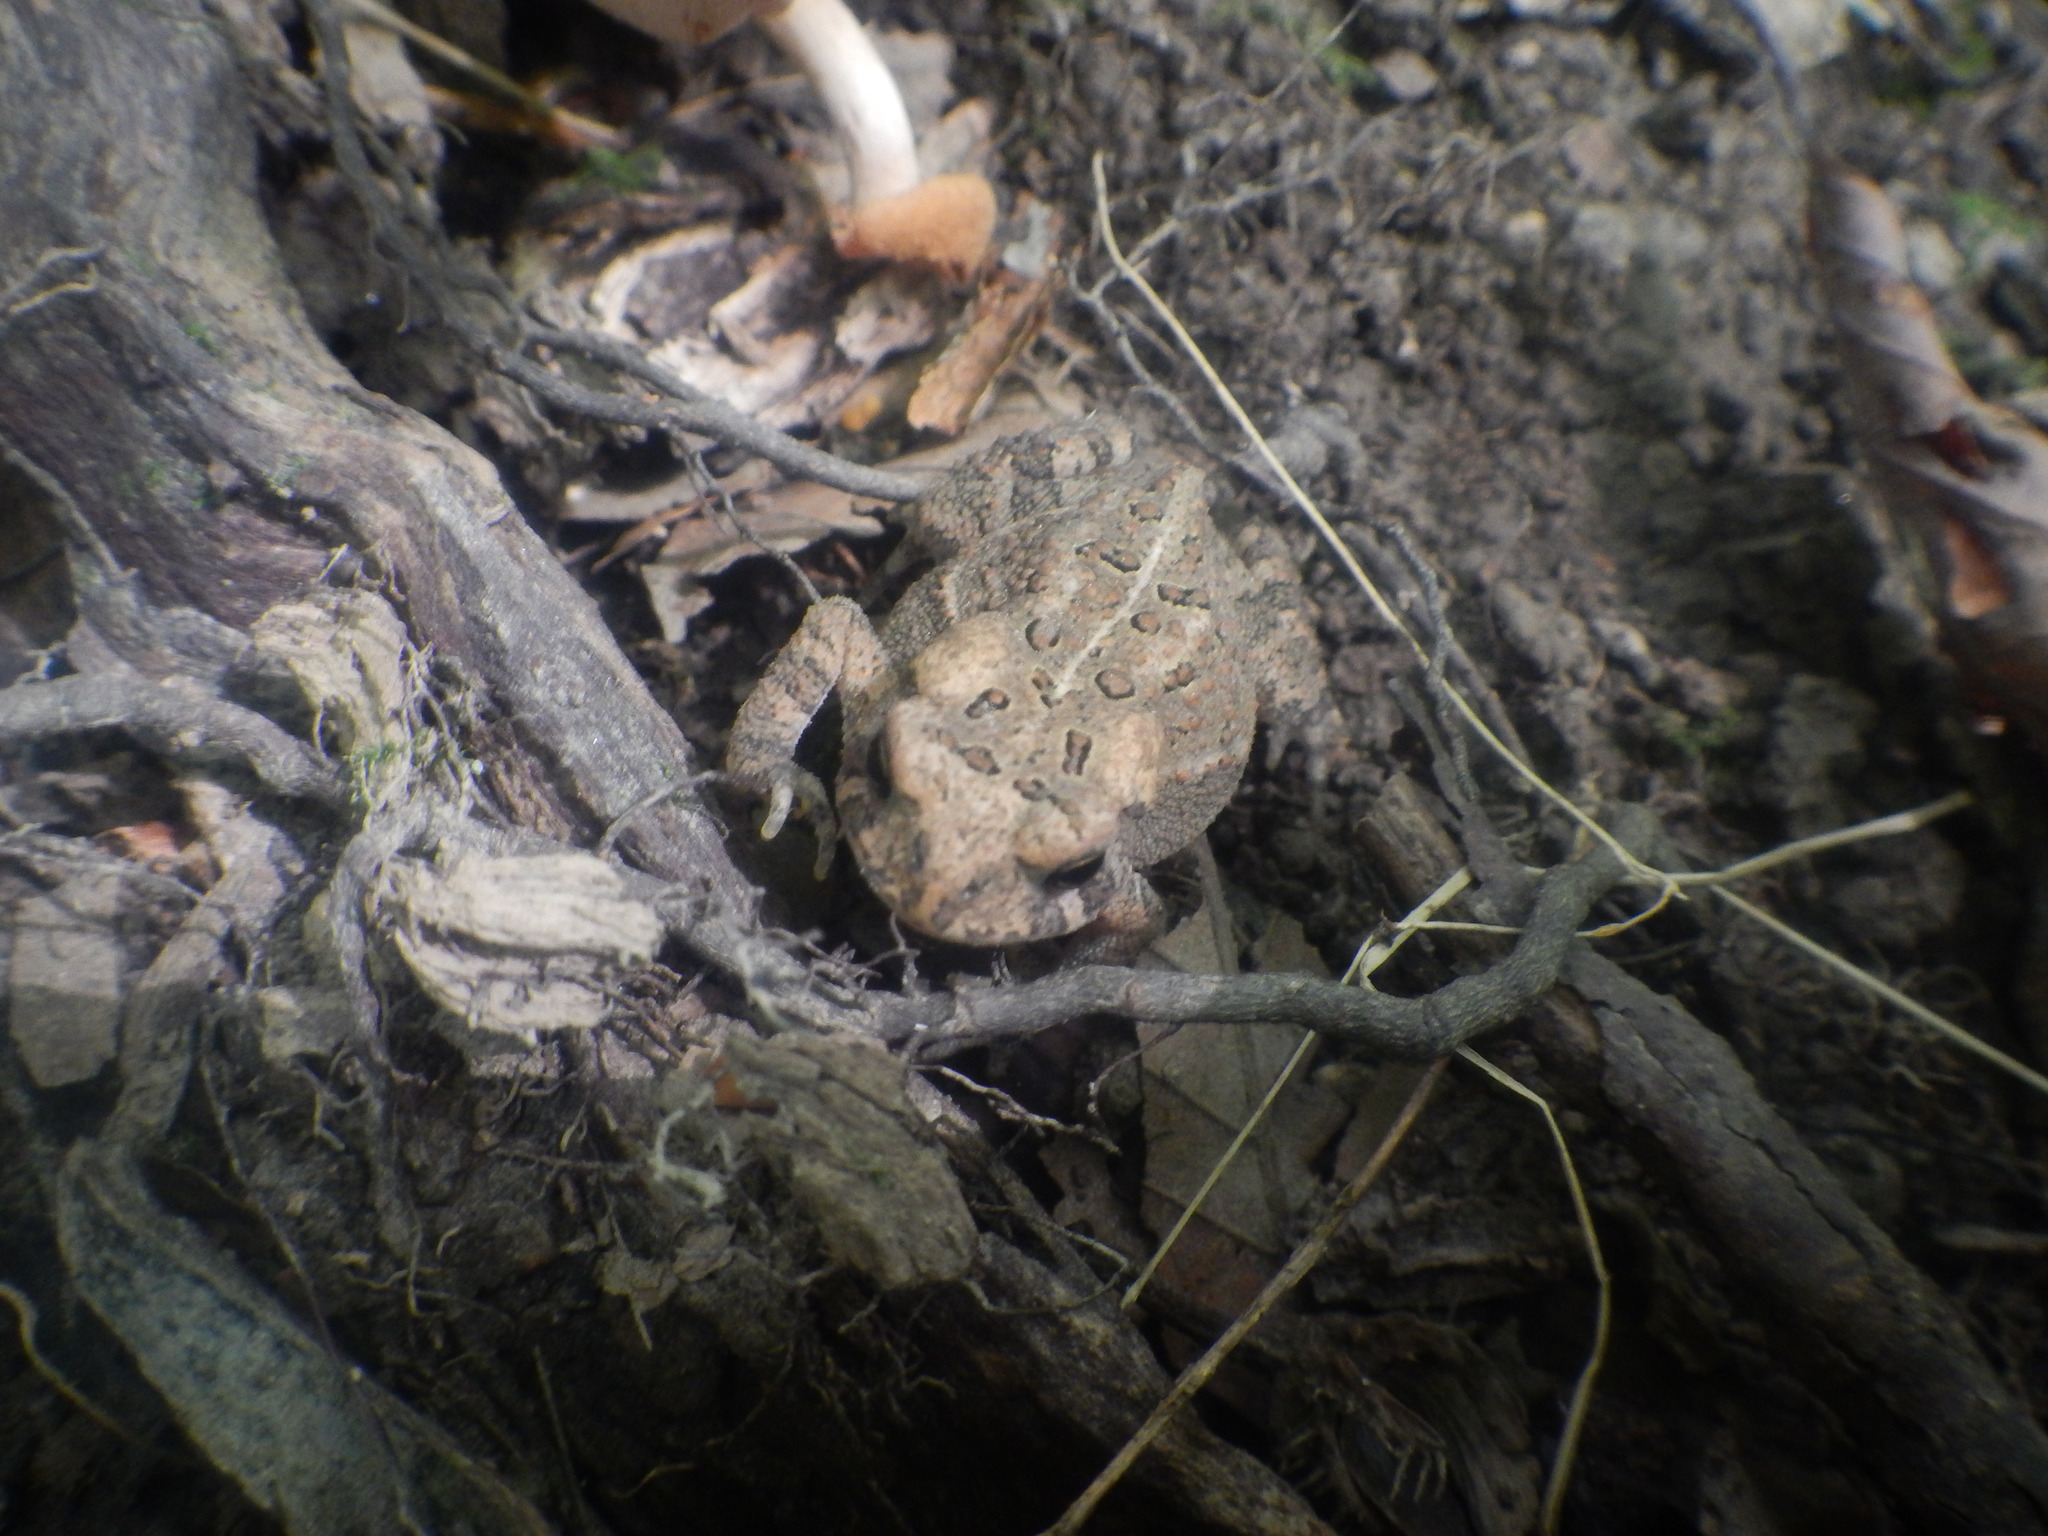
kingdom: Animalia
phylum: Chordata
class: Amphibia
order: Anura
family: Bufonidae
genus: Anaxyrus
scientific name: Anaxyrus americanus
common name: American toad
